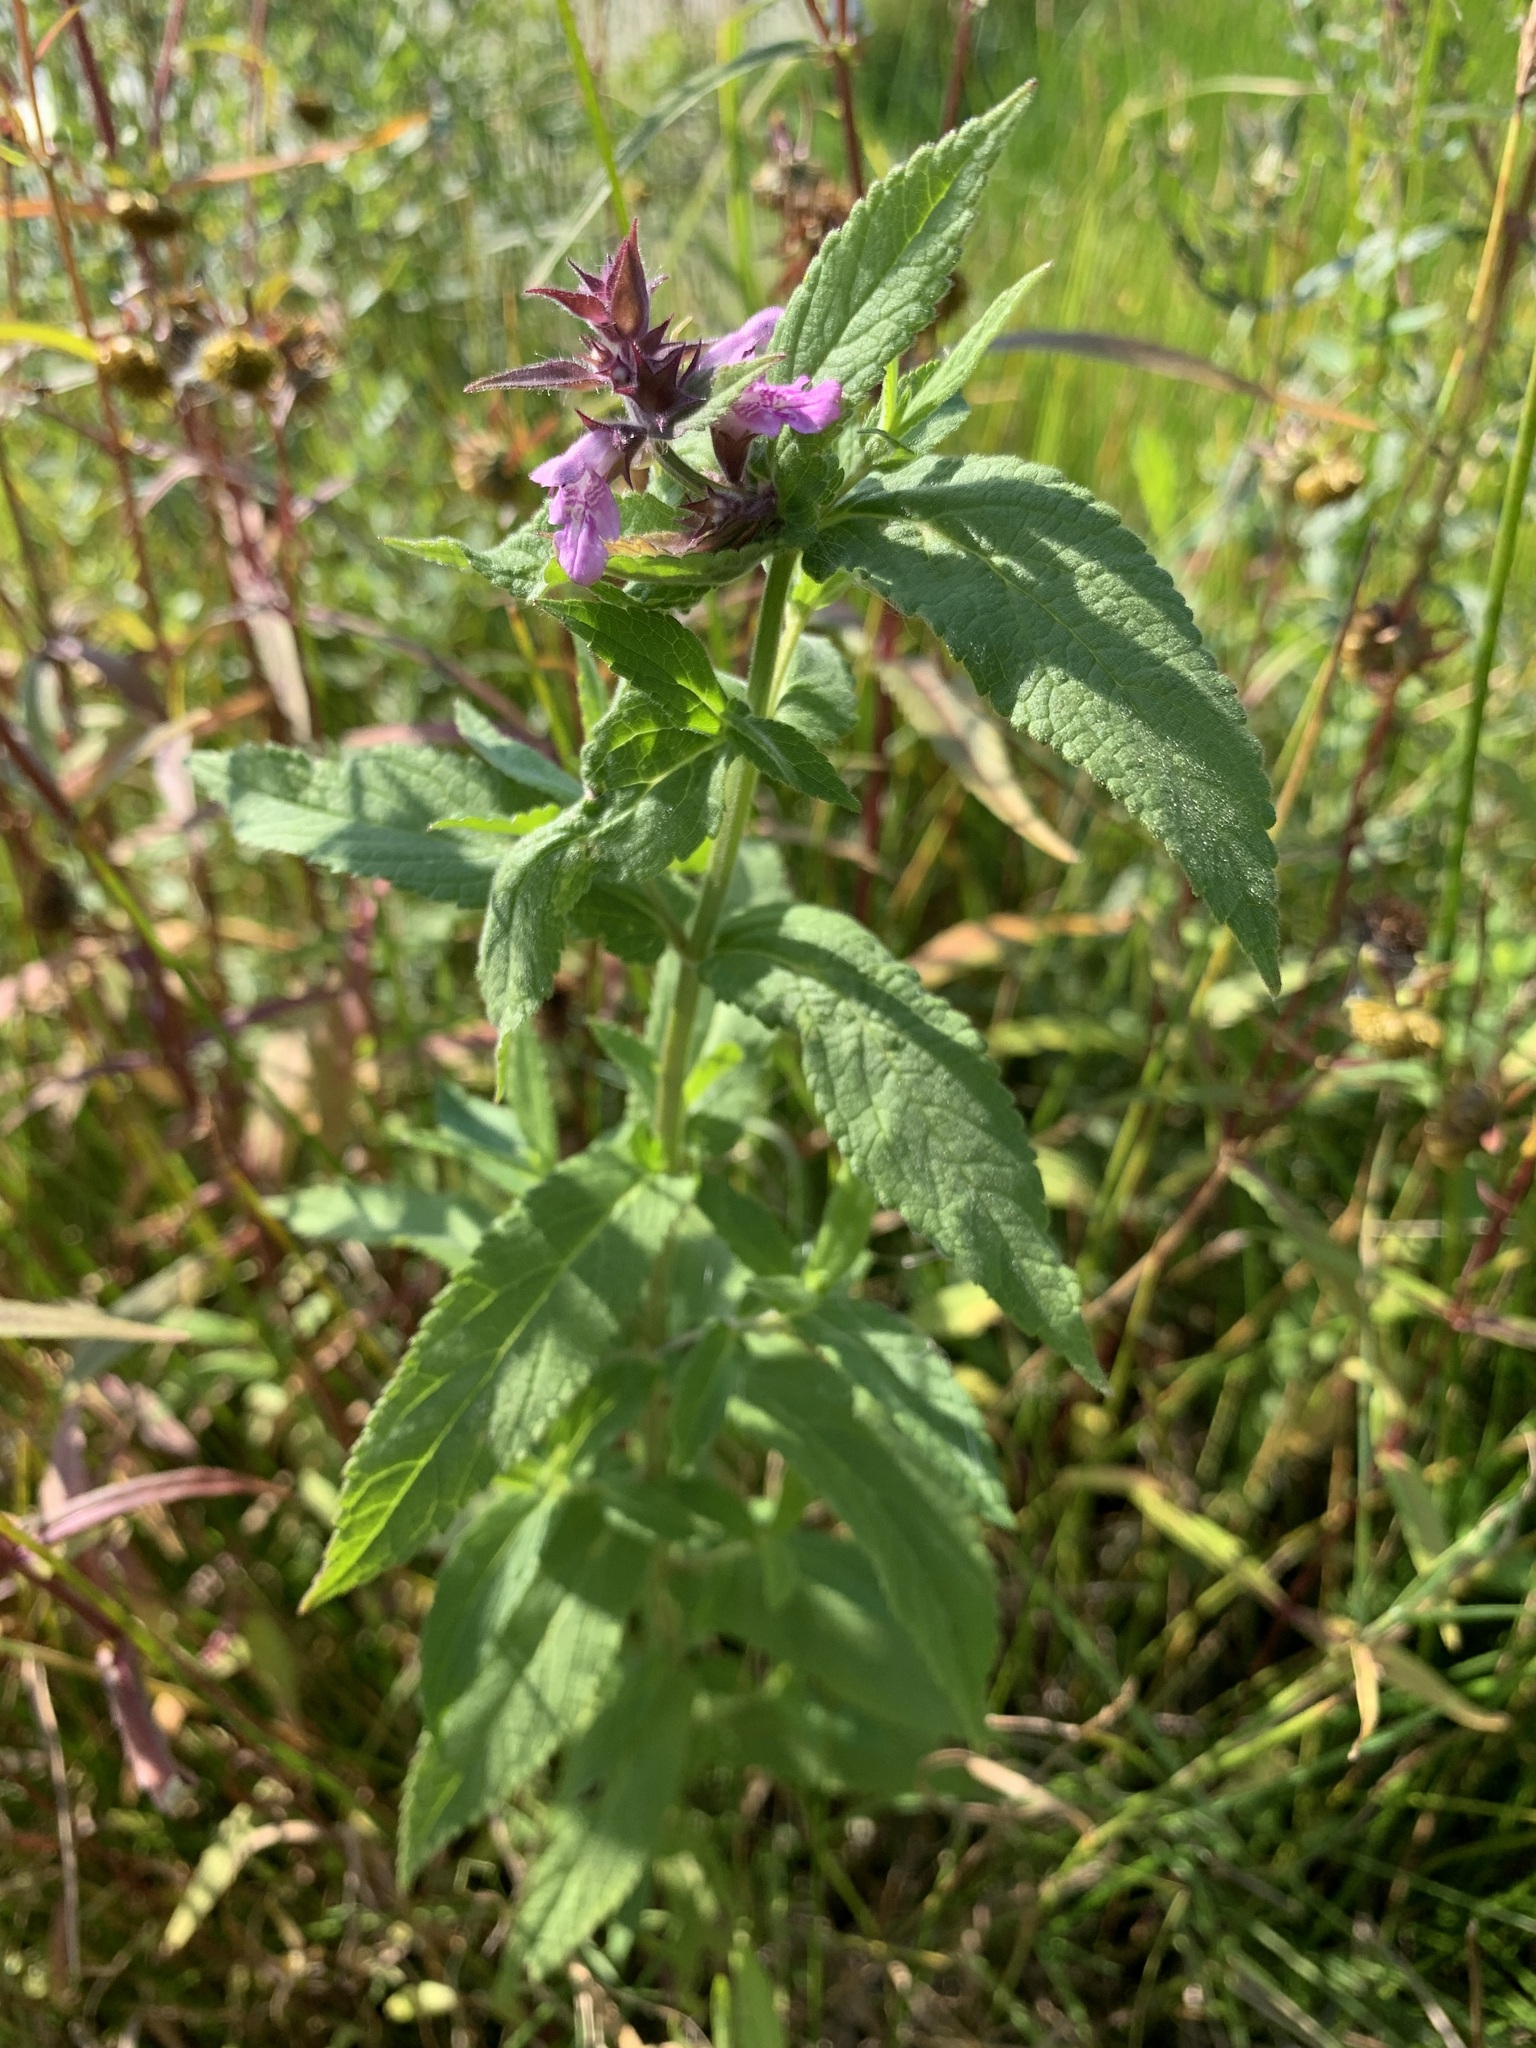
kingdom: Plantae
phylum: Tracheophyta
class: Magnoliopsida
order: Lamiales
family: Lamiaceae
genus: Stachys
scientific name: Stachys palustris
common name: Marsh woundwort
